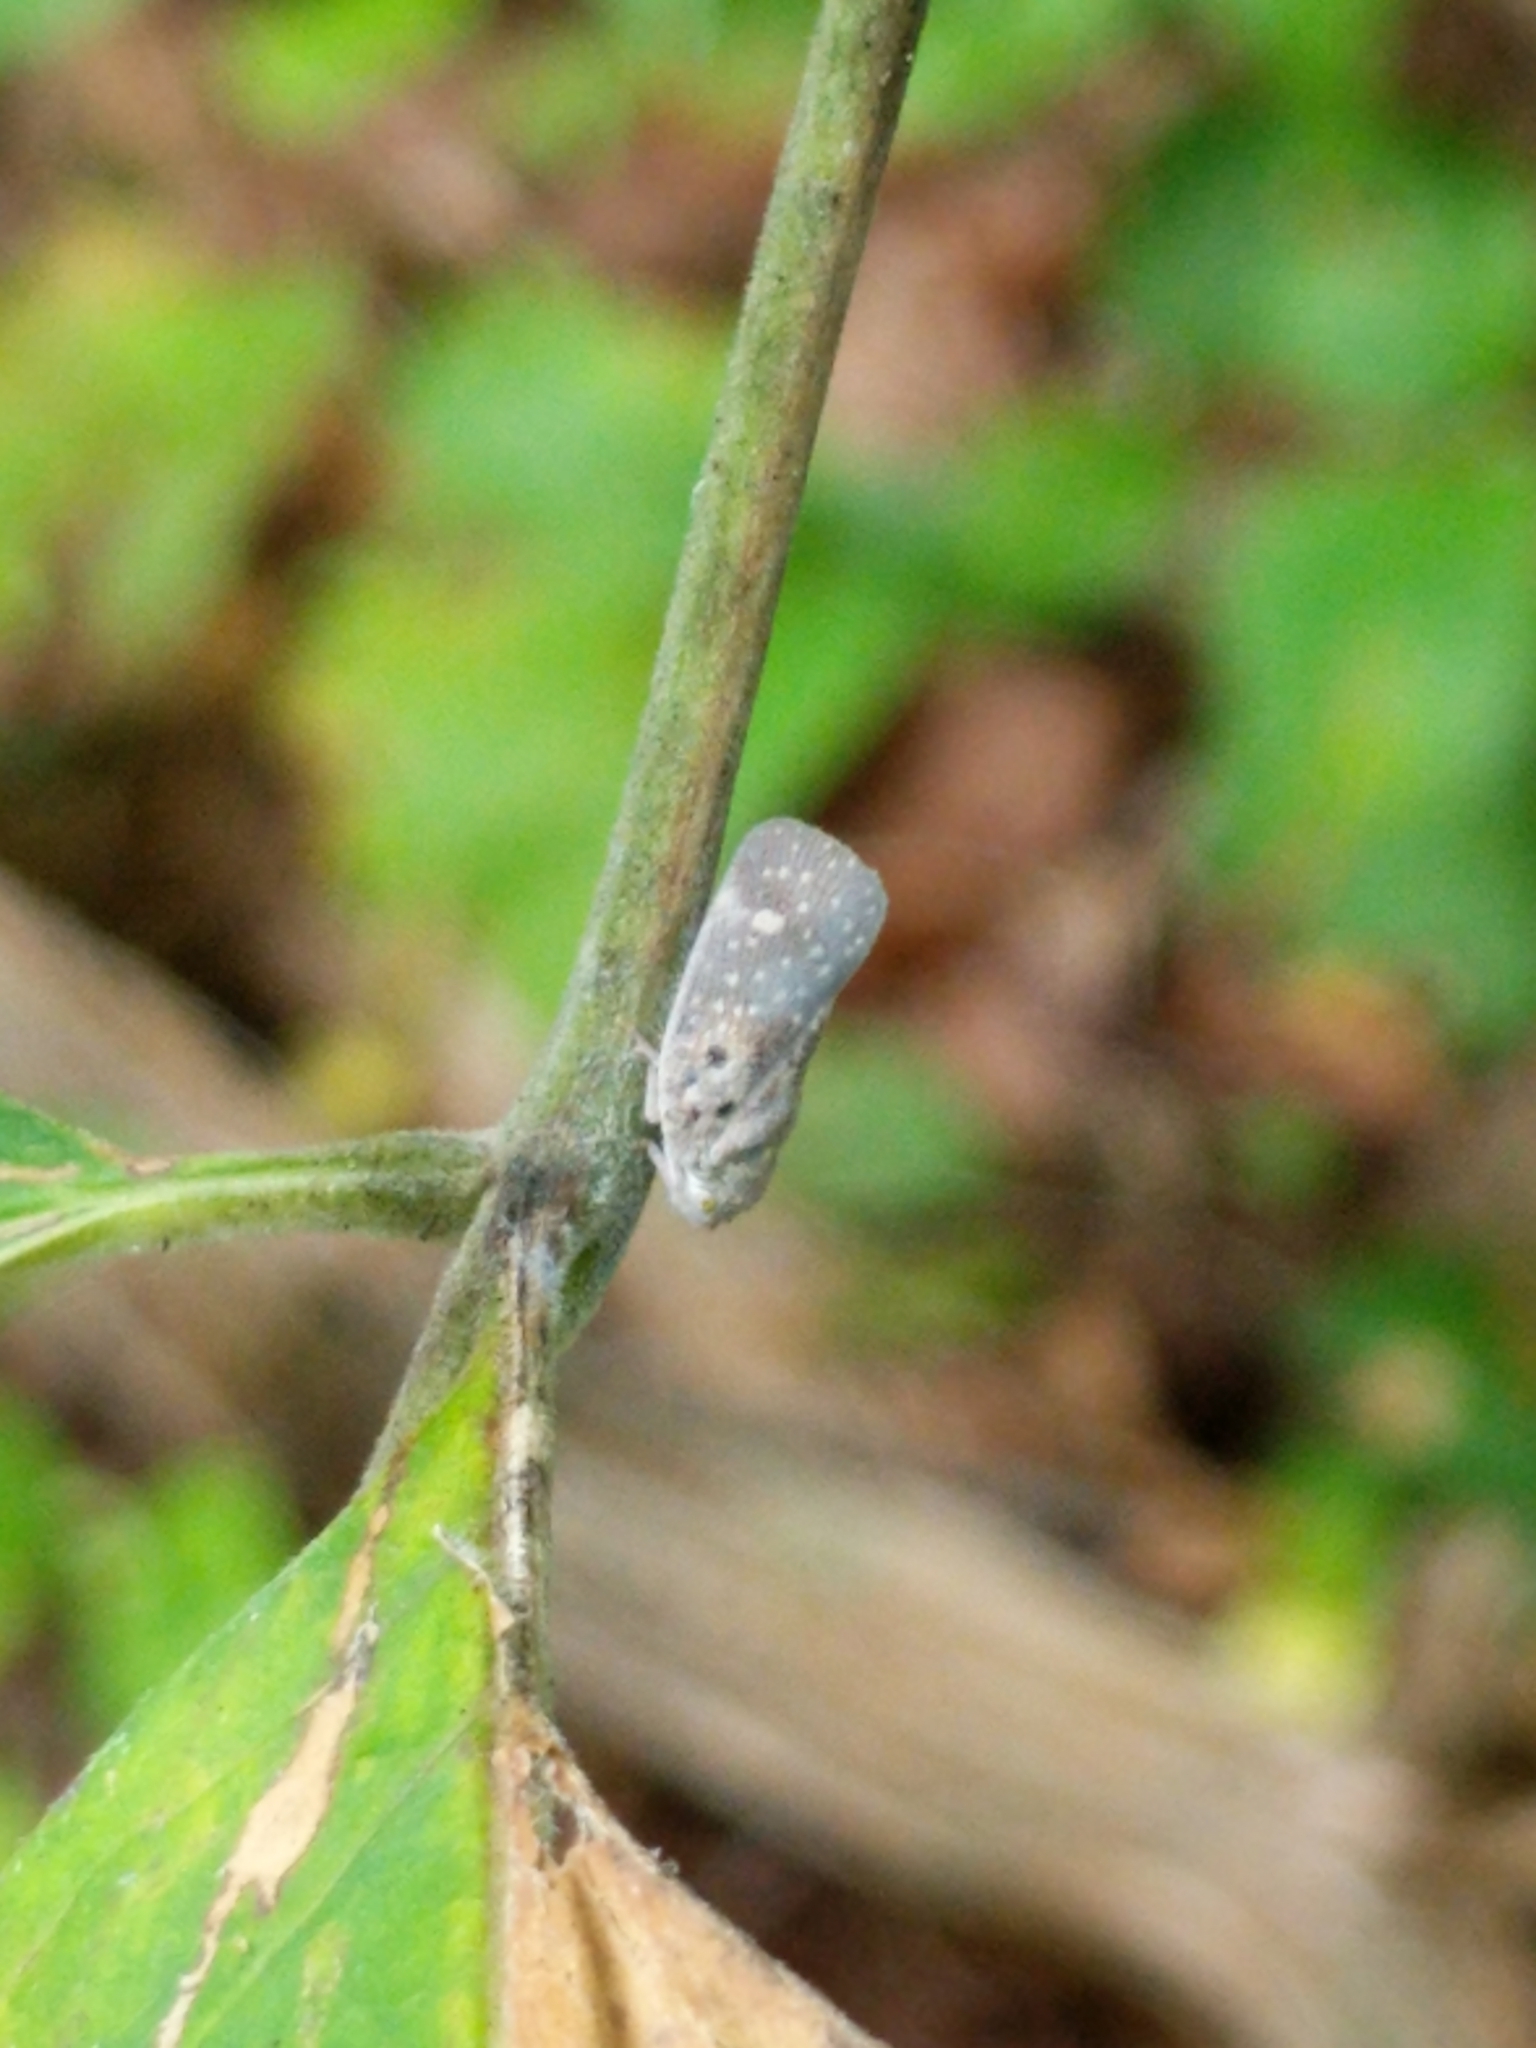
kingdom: Animalia
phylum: Arthropoda
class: Insecta
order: Hemiptera
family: Flatidae
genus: Metcalfa
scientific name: Metcalfa pruinosa
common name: Citrus flatid planthopper
